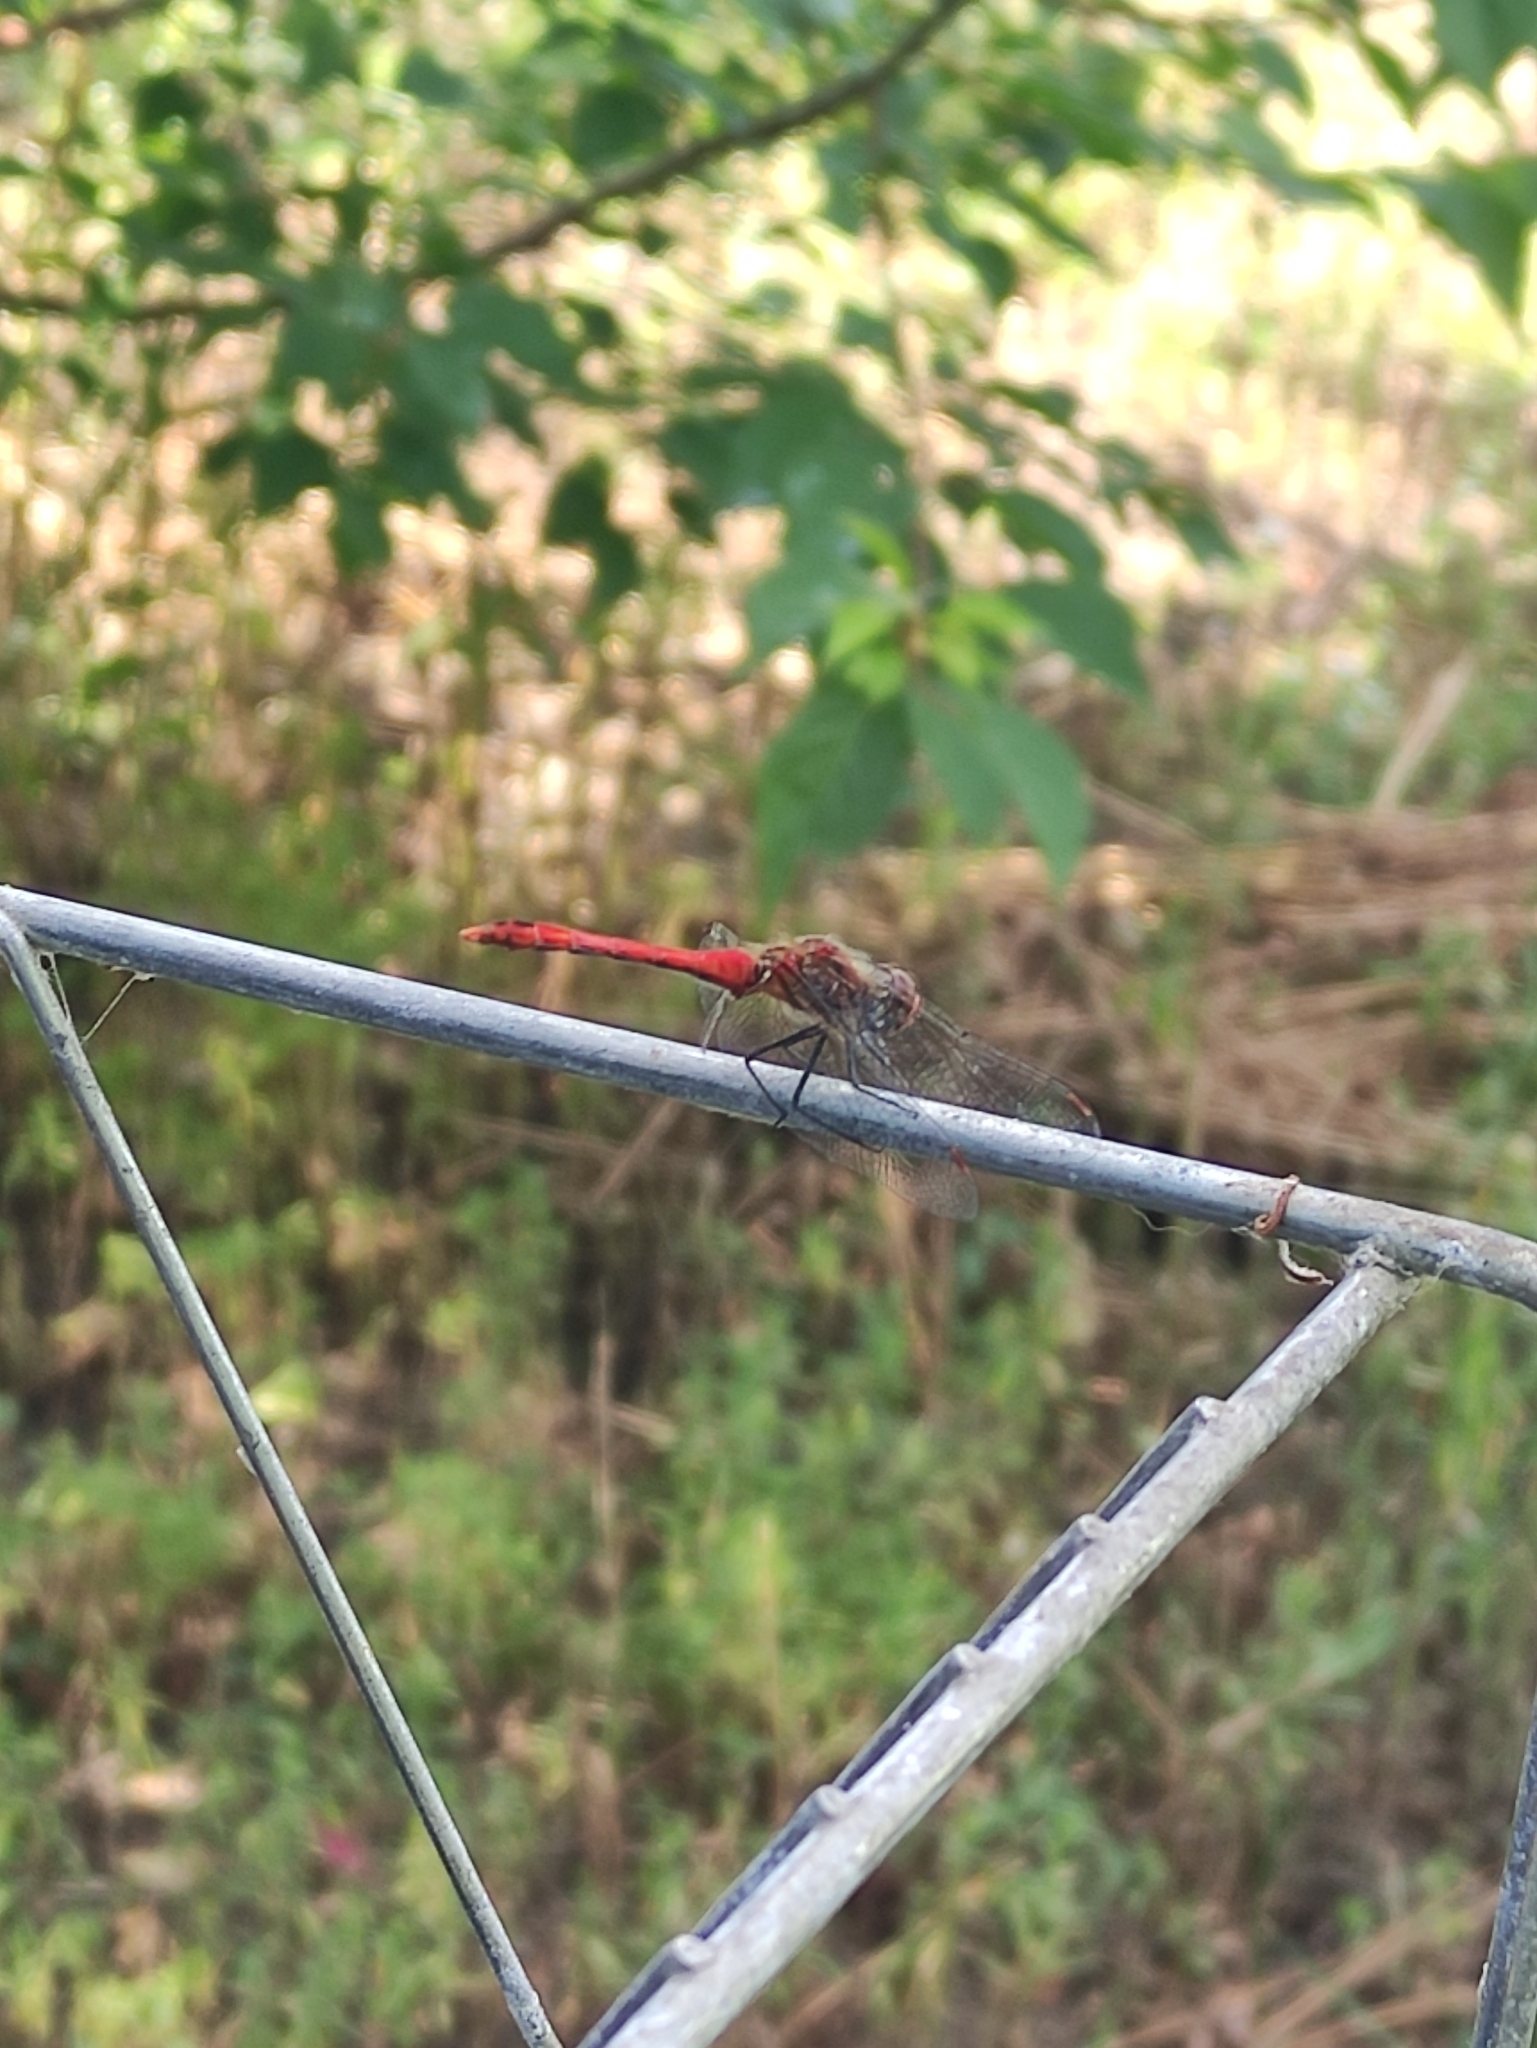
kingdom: Animalia
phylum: Arthropoda
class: Insecta
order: Odonata
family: Libellulidae
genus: Sympetrum
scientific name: Sympetrum sanguineum
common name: Ruddy darter
